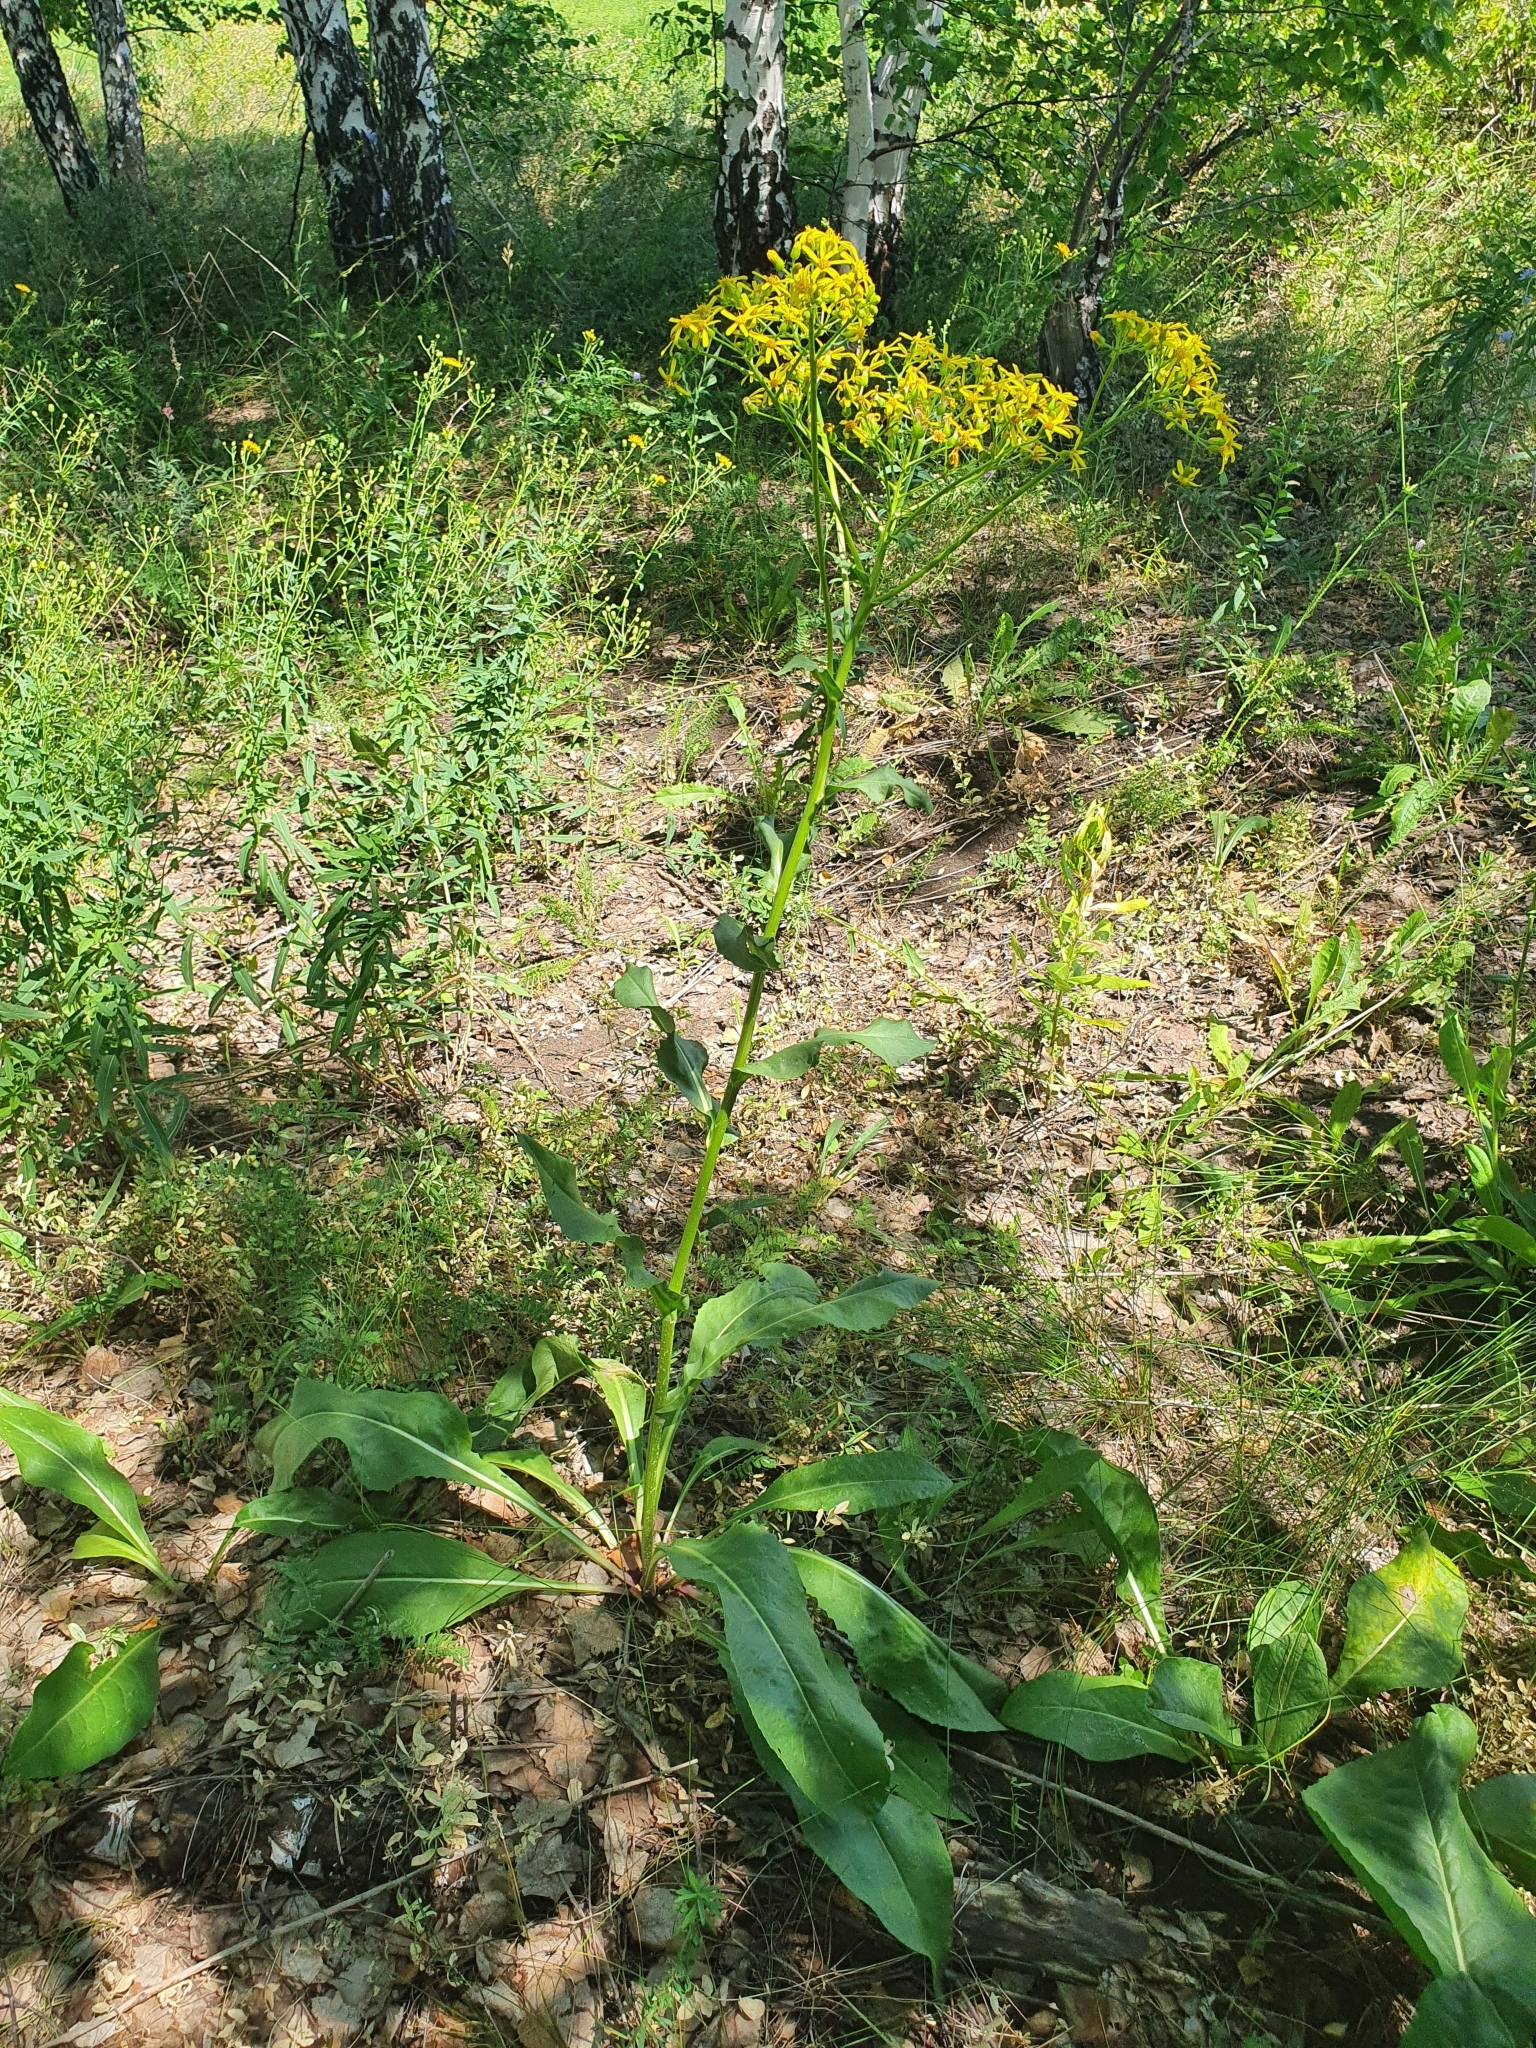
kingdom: Plantae
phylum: Tracheophyta
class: Magnoliopsida
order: Asterales
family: Asteraceae
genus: Senecio
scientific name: Senecio doria
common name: Golden ragwort
